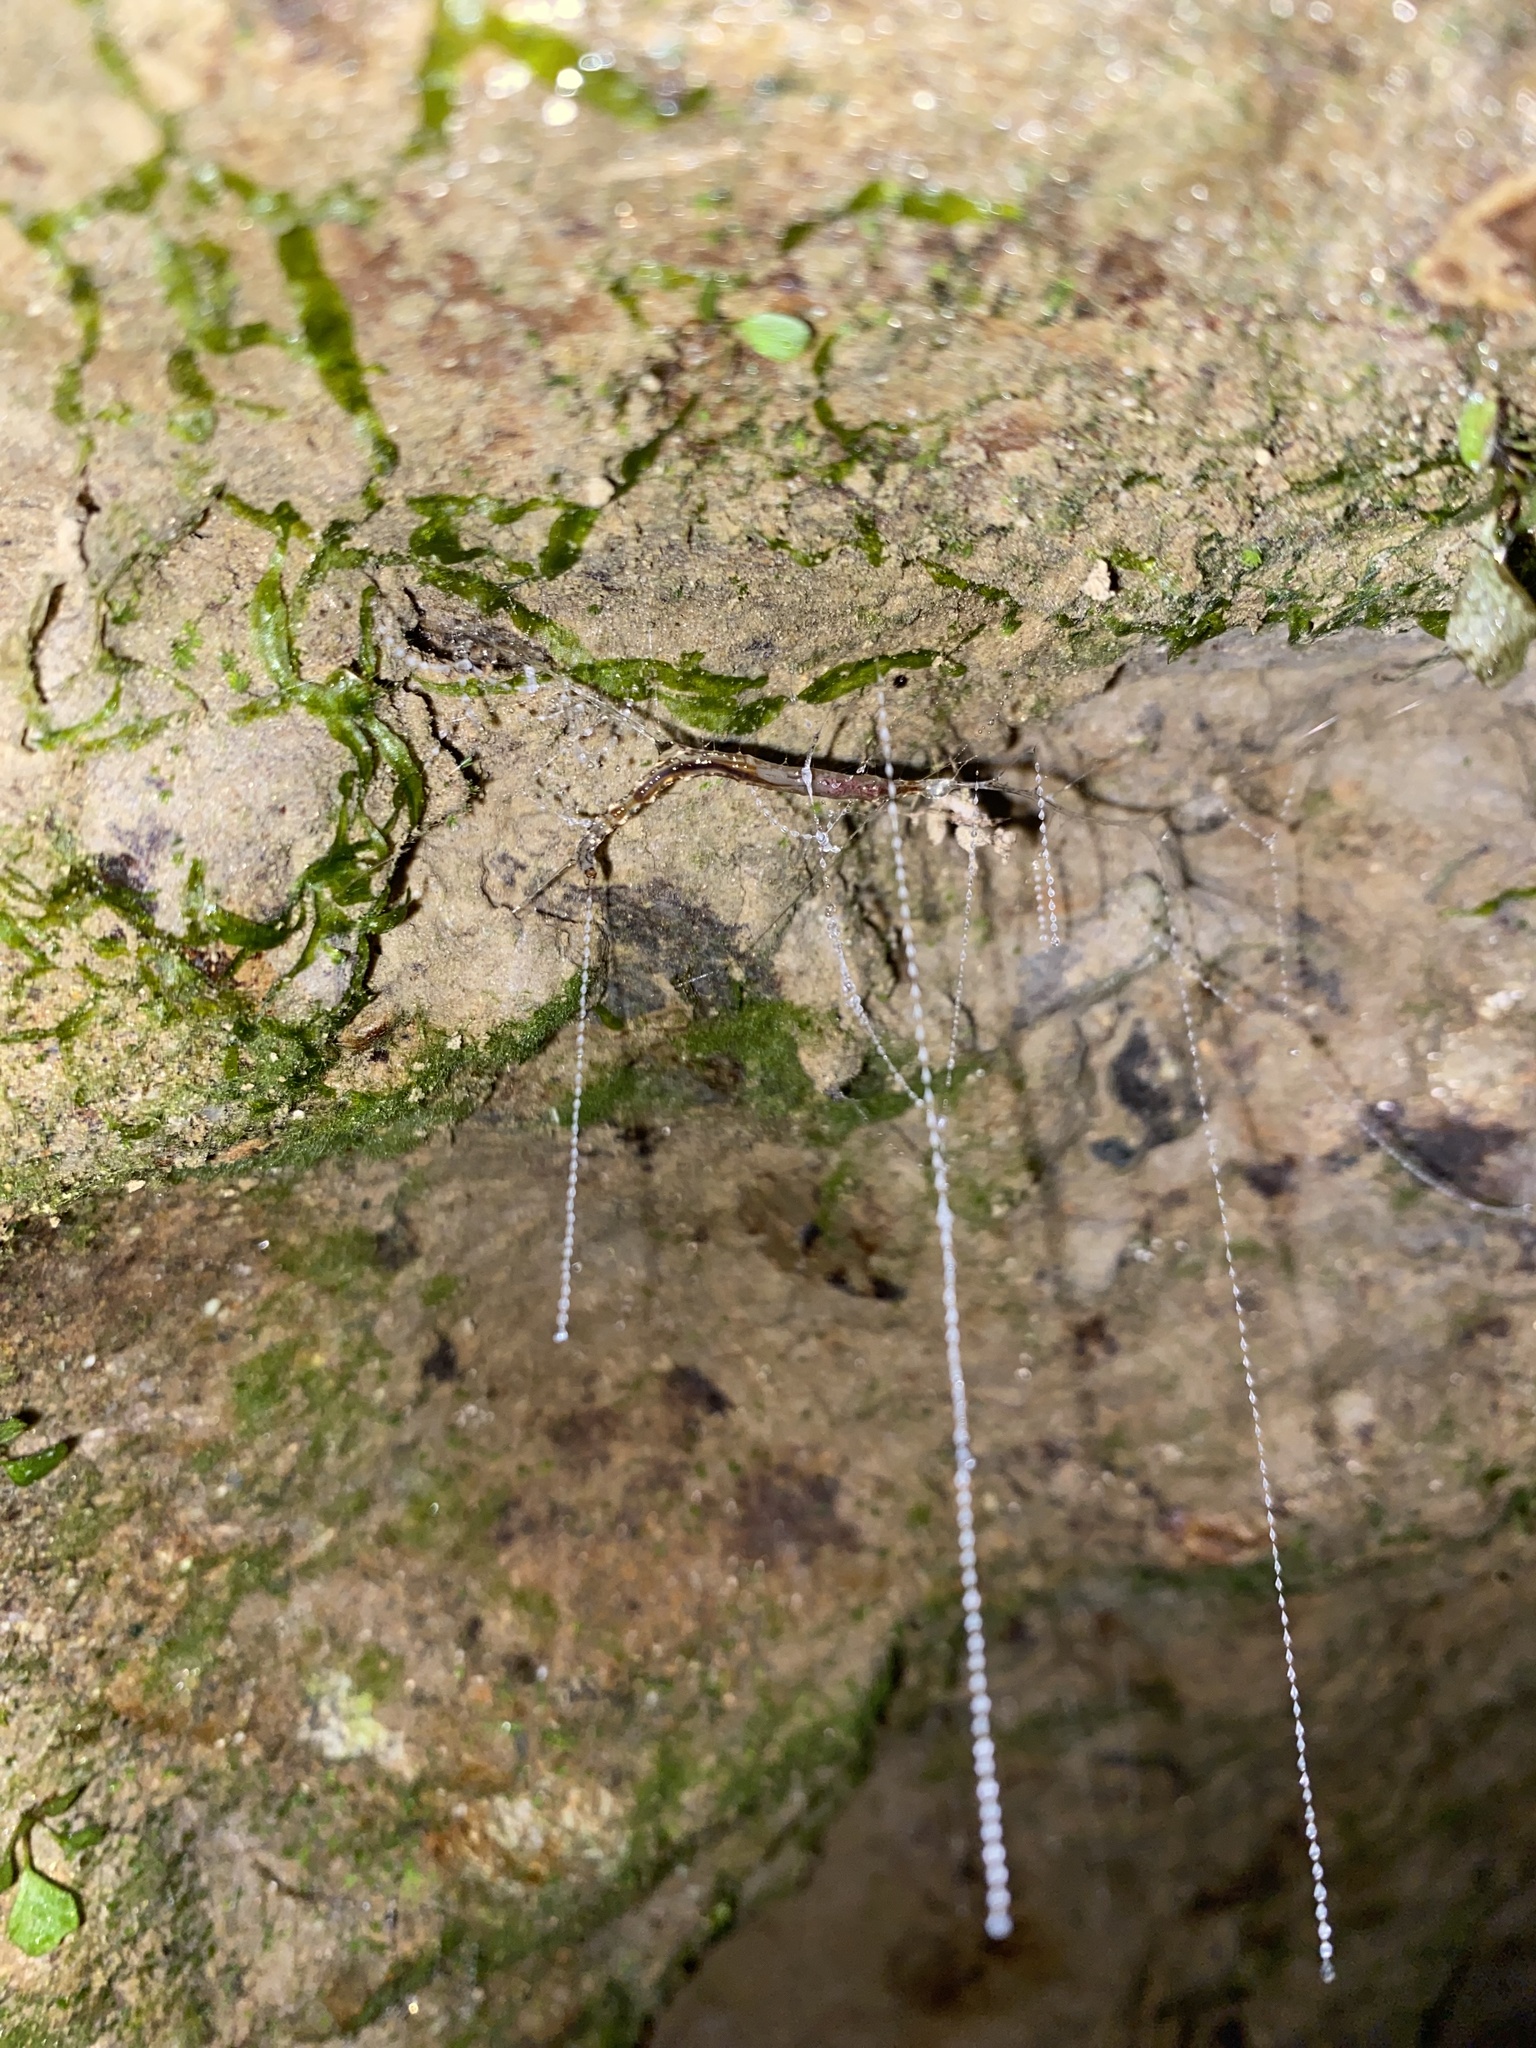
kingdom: Animalia
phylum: Arthropoda
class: Insecta
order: Diptera
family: Keroplatidae
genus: Arachnocampa
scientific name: Arachnocampa luminosa
